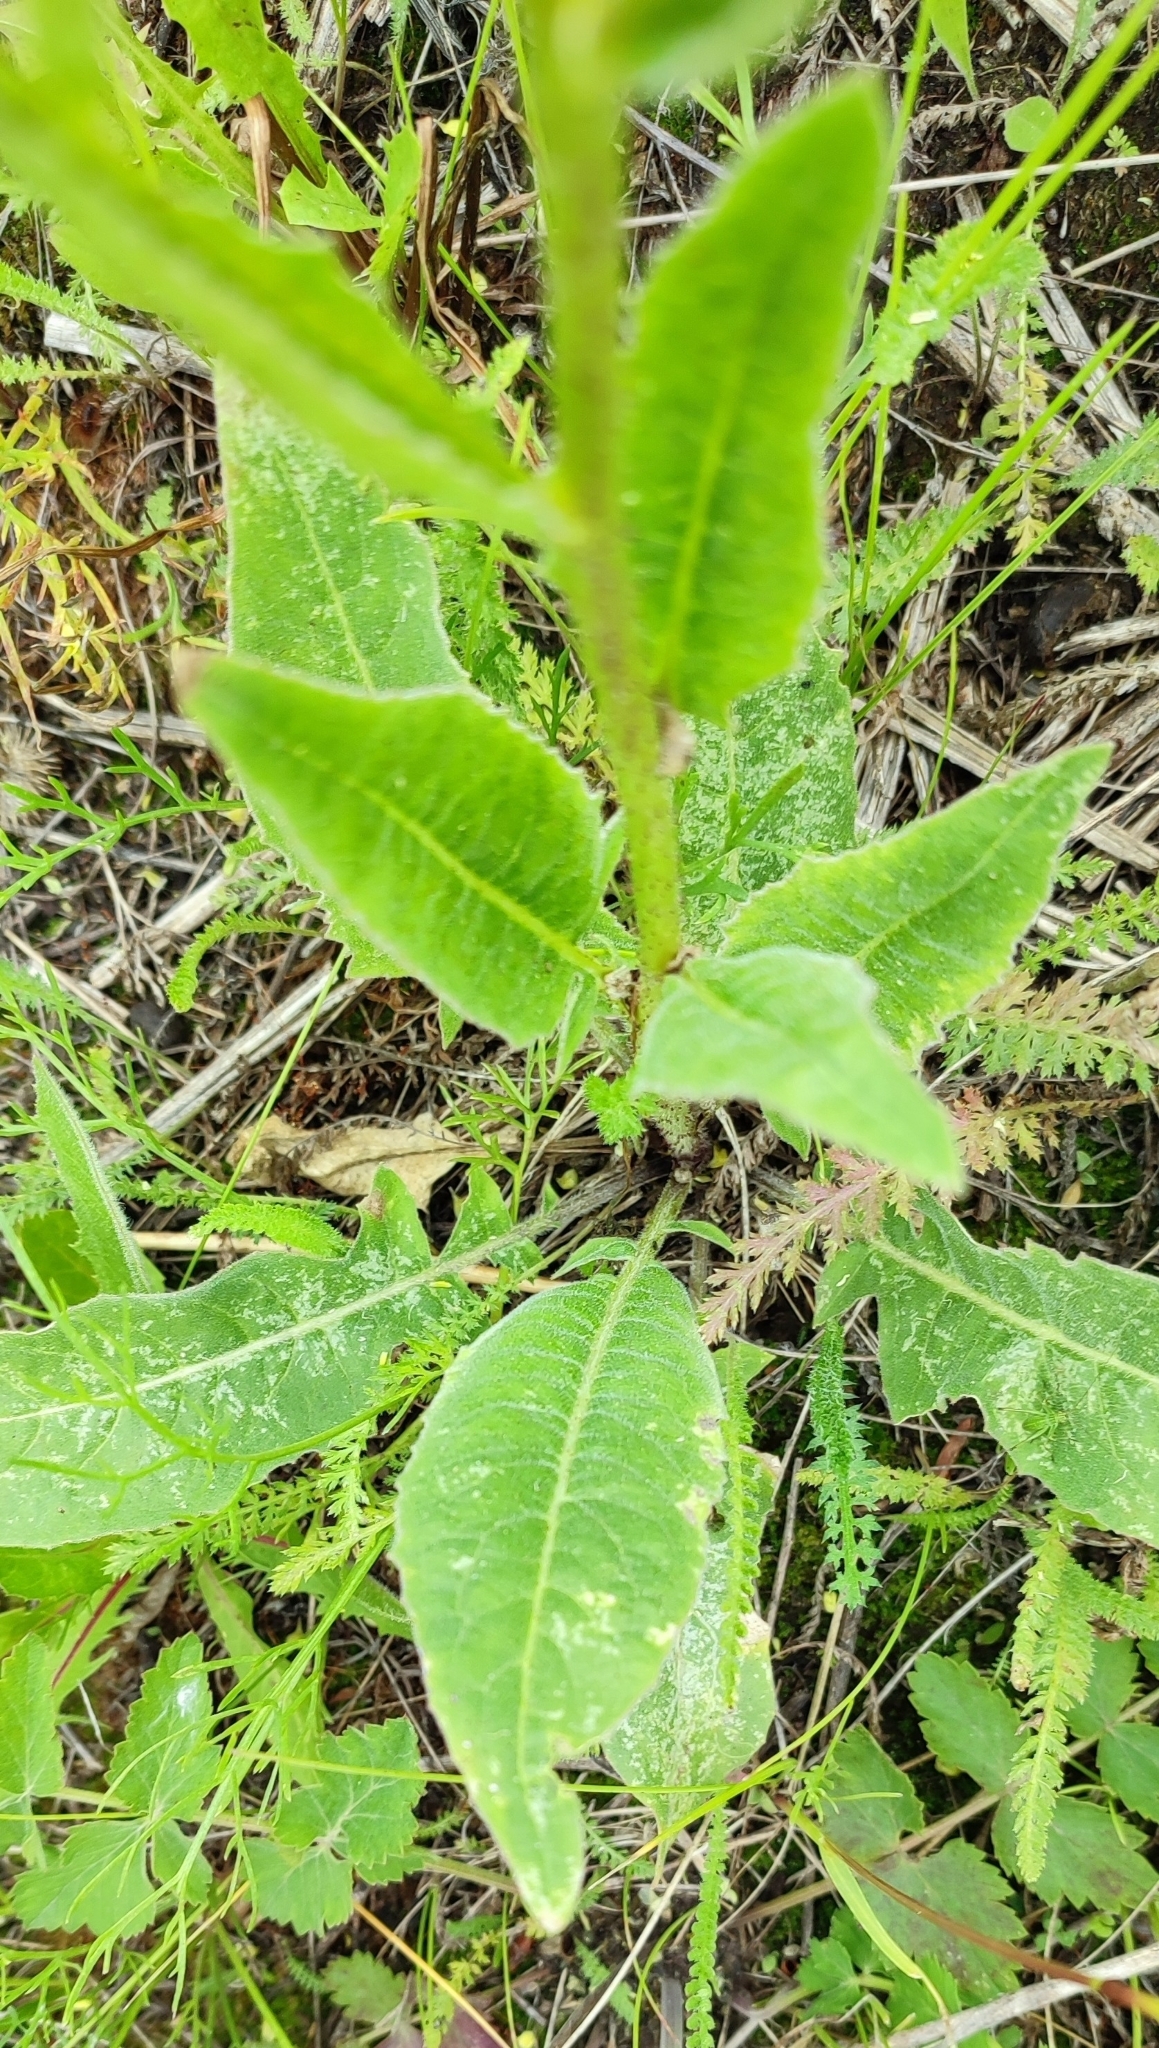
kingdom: Plantae
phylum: Tracheophyta
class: Magnoliopsida
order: Brassicales
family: Brassicaceae
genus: Bunias
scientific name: Bunias orientalis
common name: Warty-cabbage
